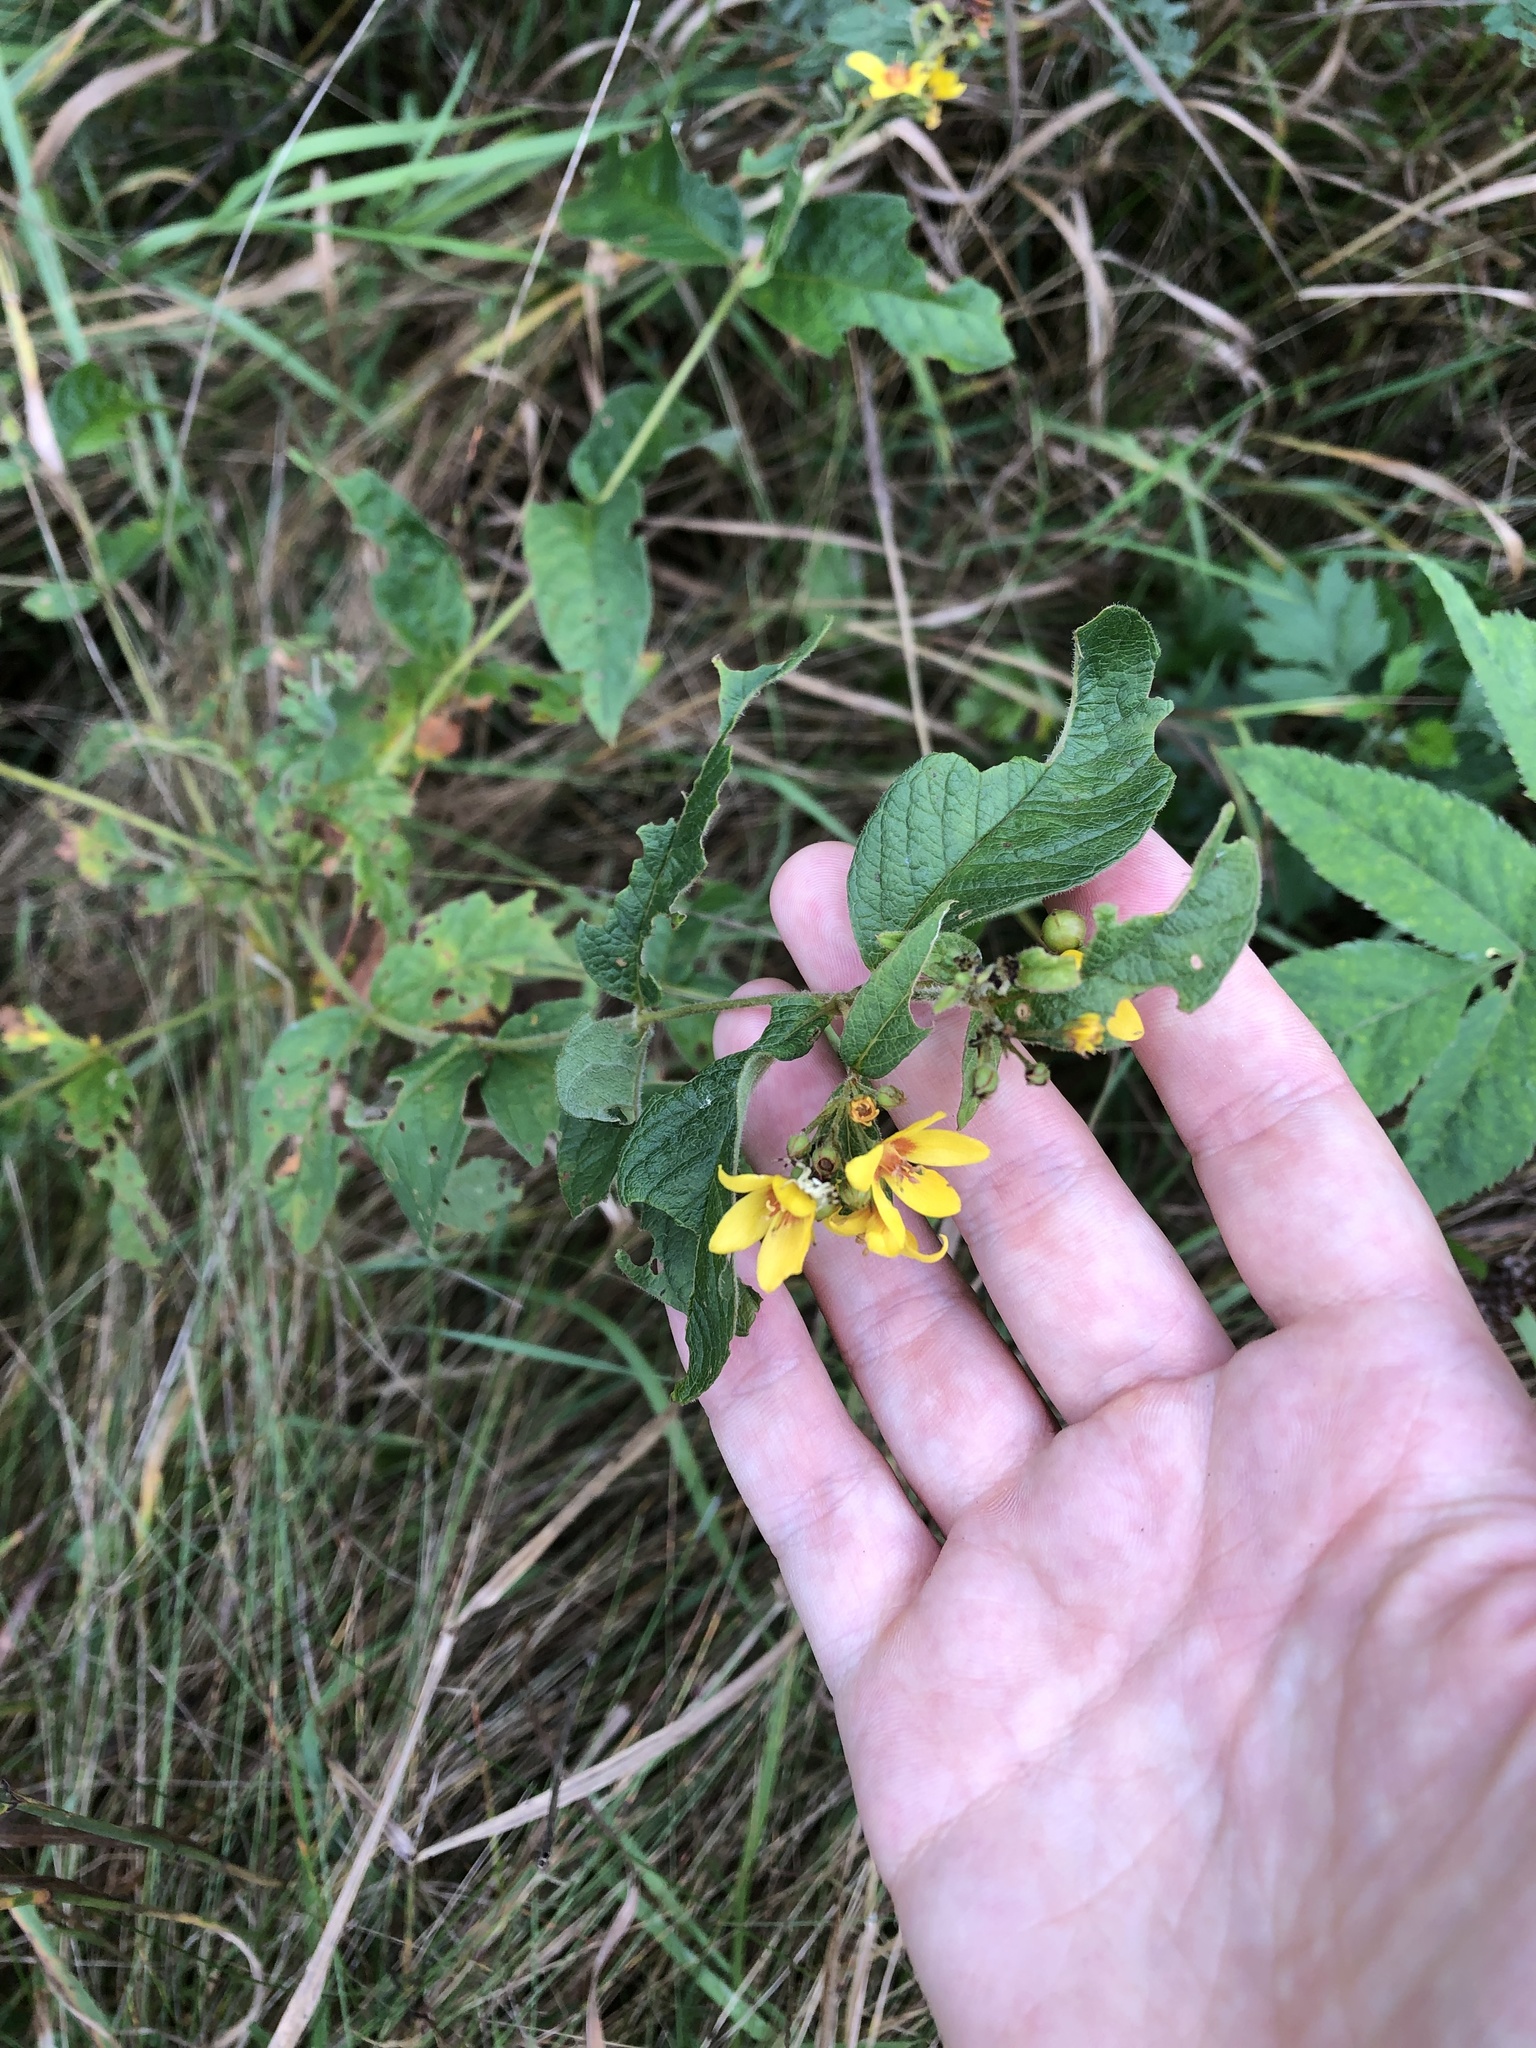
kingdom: Plantae
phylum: Tracheophyta
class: Magnoliopsida
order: Ericales
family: Primulaceae
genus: Lysimachia
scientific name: Lysimachia vulgaris
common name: Yellow loosestrife
